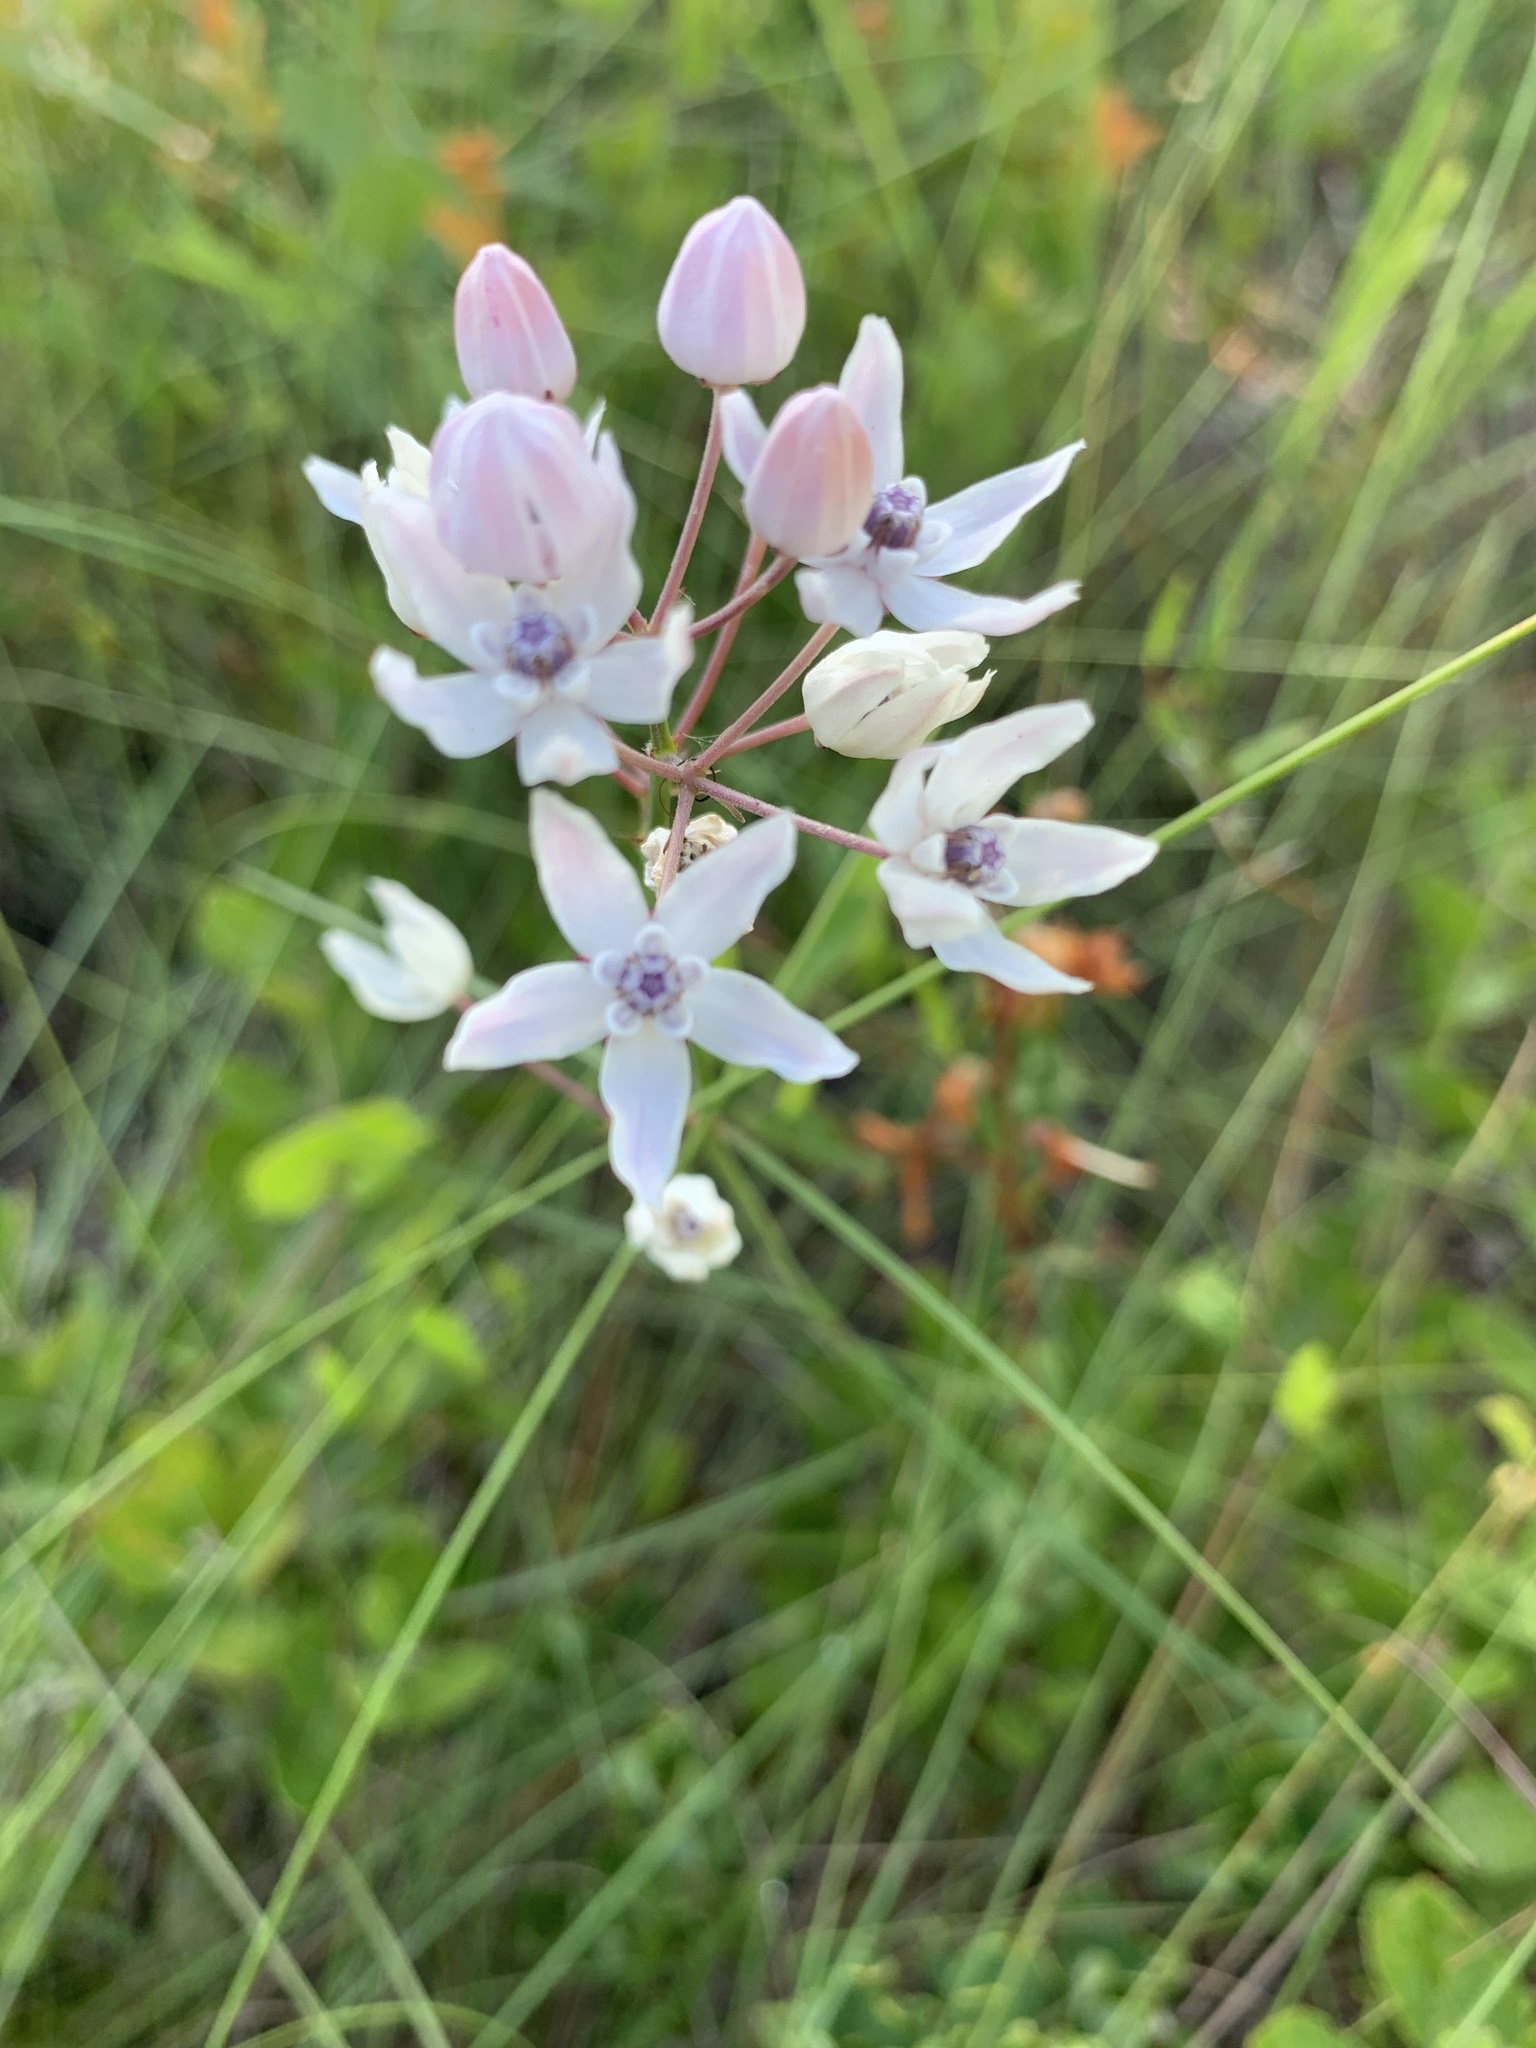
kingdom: Plantae
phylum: Tracheophyta
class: Magnoliopsida
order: Gentianales
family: Apocynaceae
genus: Asclepias
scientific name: Asclepias feayi
